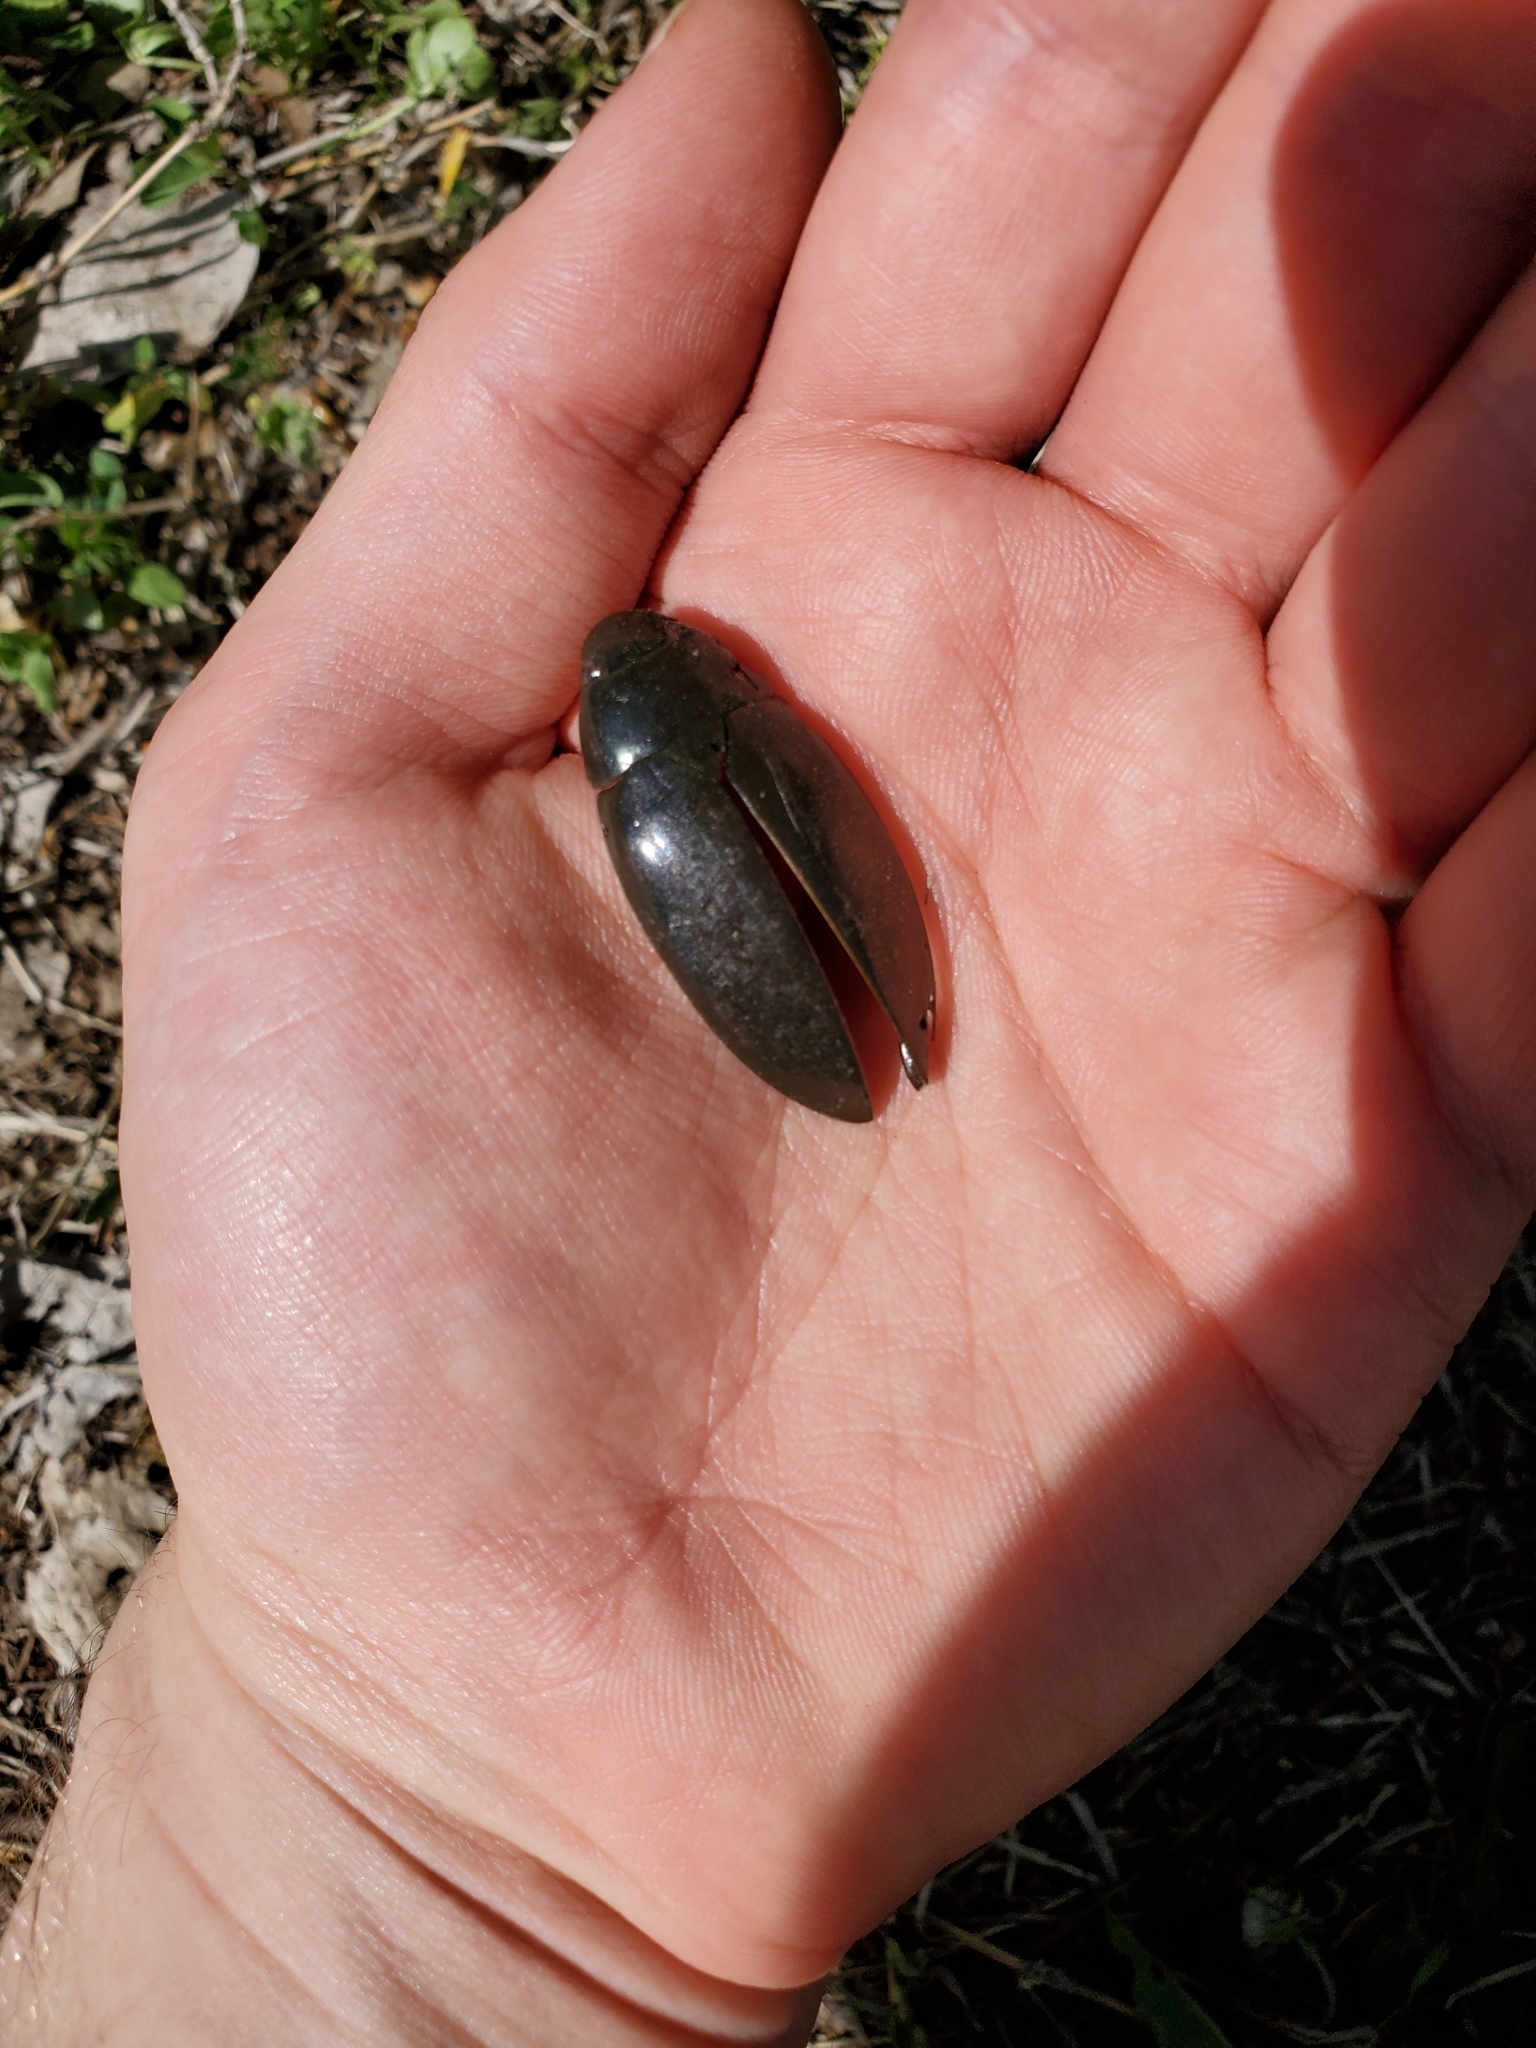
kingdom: Animalia
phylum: Arthropoda
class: Insecta
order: Coleoptera
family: Hydrophilidae
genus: Hydrophilus
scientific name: Hydrophilus triangularis
